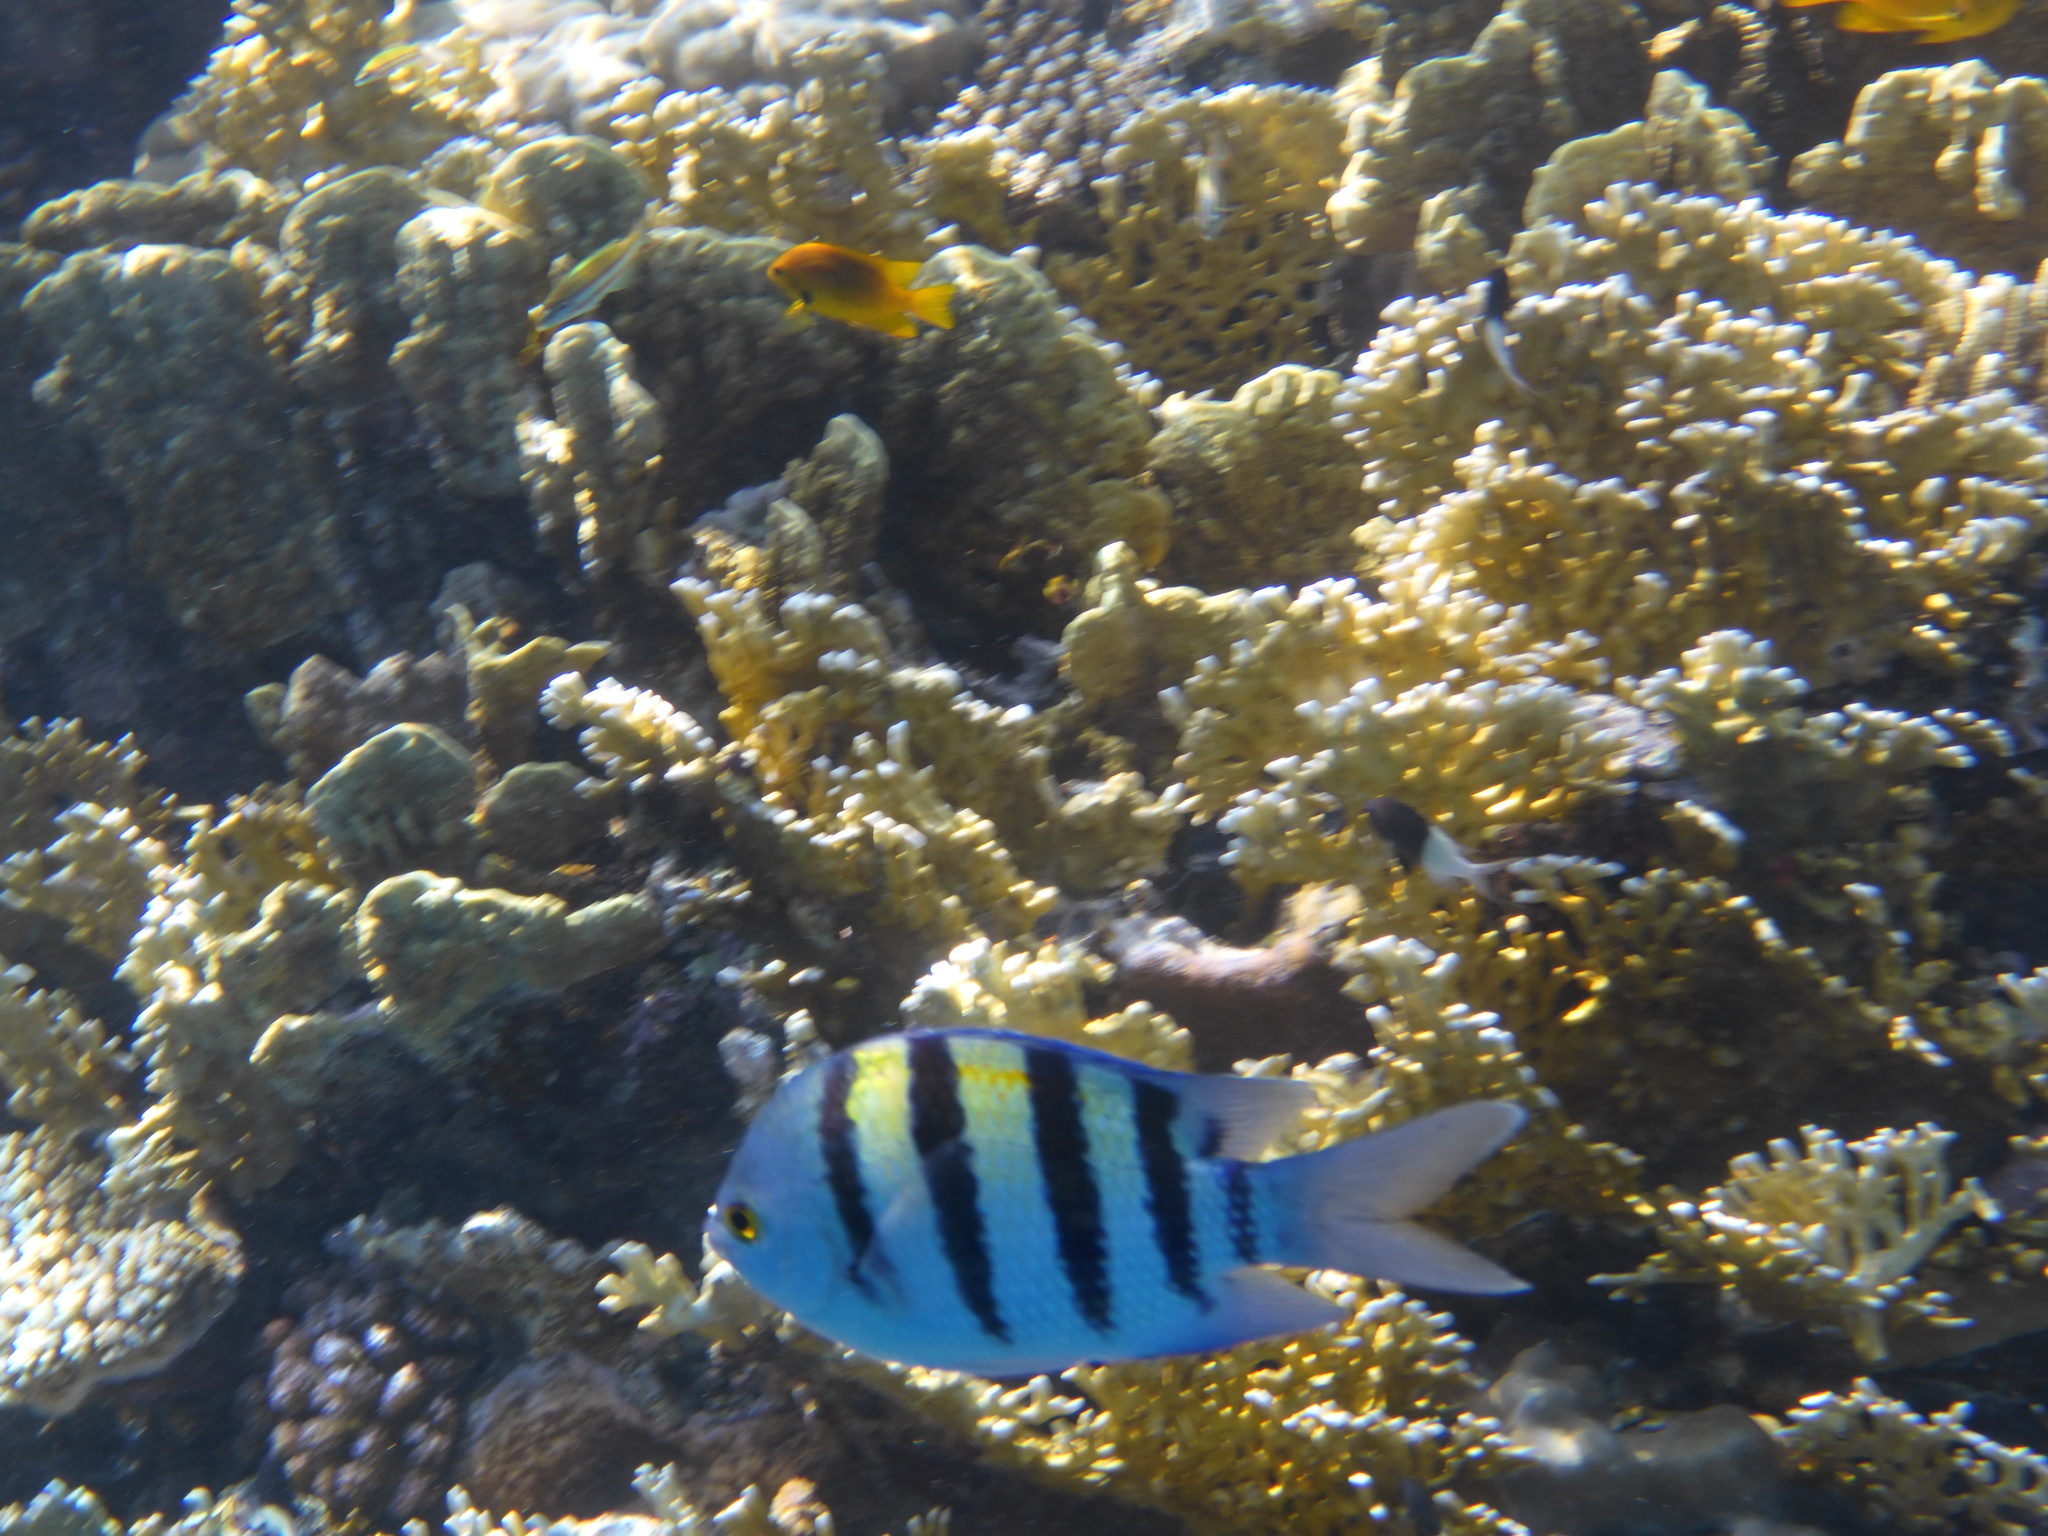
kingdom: Animalia
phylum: Chordata
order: Perciformes
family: Pomacentridae
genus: Abudefduf
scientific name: Abudefduf vaigiensis
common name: Indo-pacific sergeant
